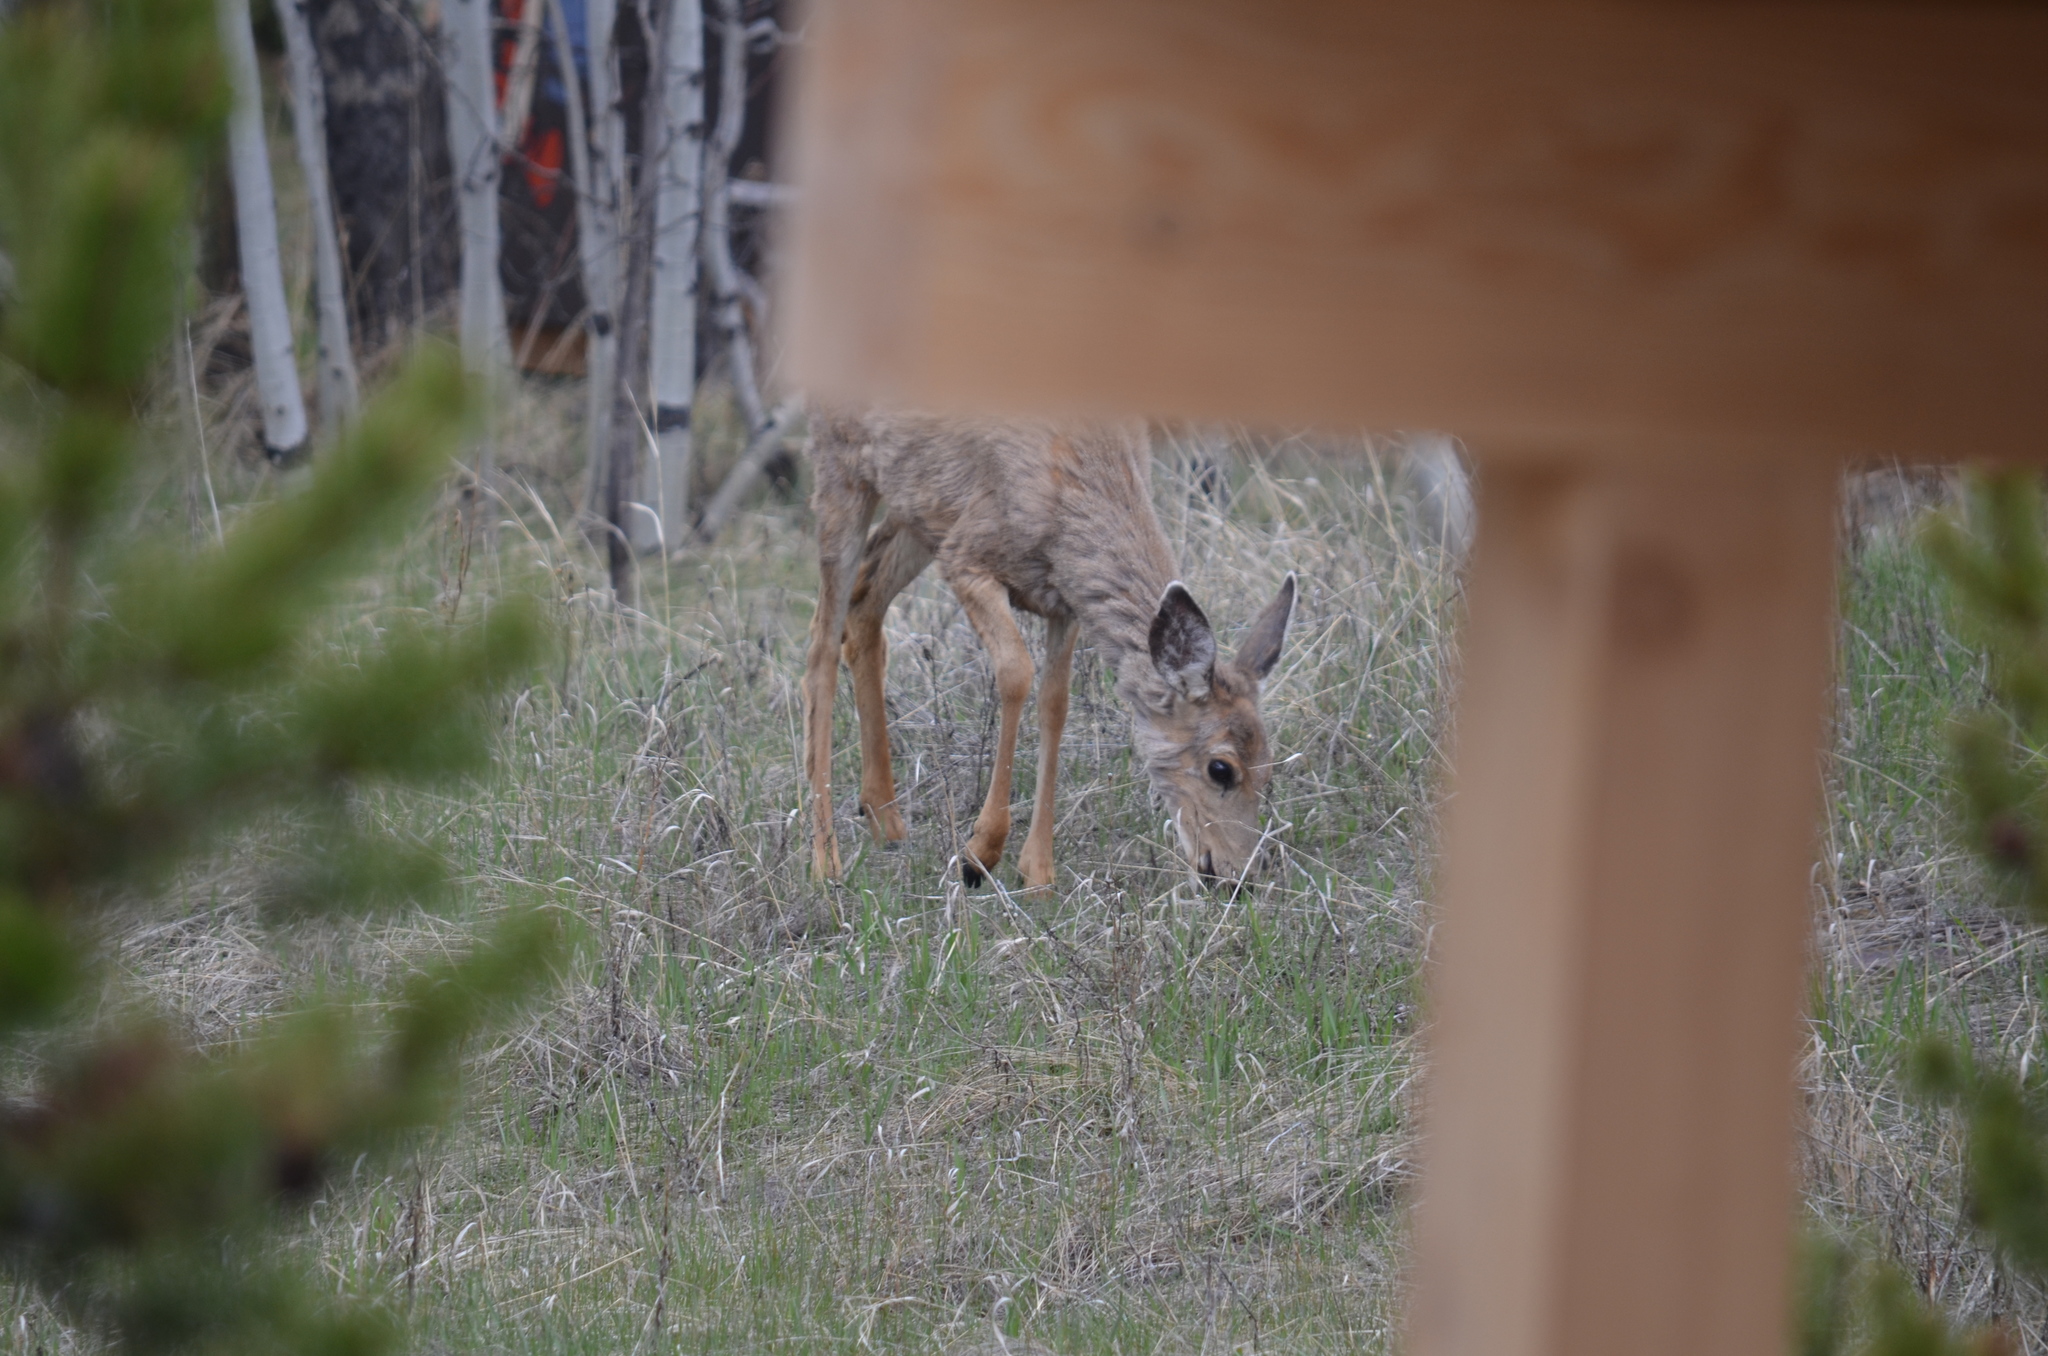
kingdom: Animalia
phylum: Chordata
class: Mammalia
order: Artiodactyla
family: Cervidae
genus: Odocoileus
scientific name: Odocoileus hemionus
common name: Mule deer
